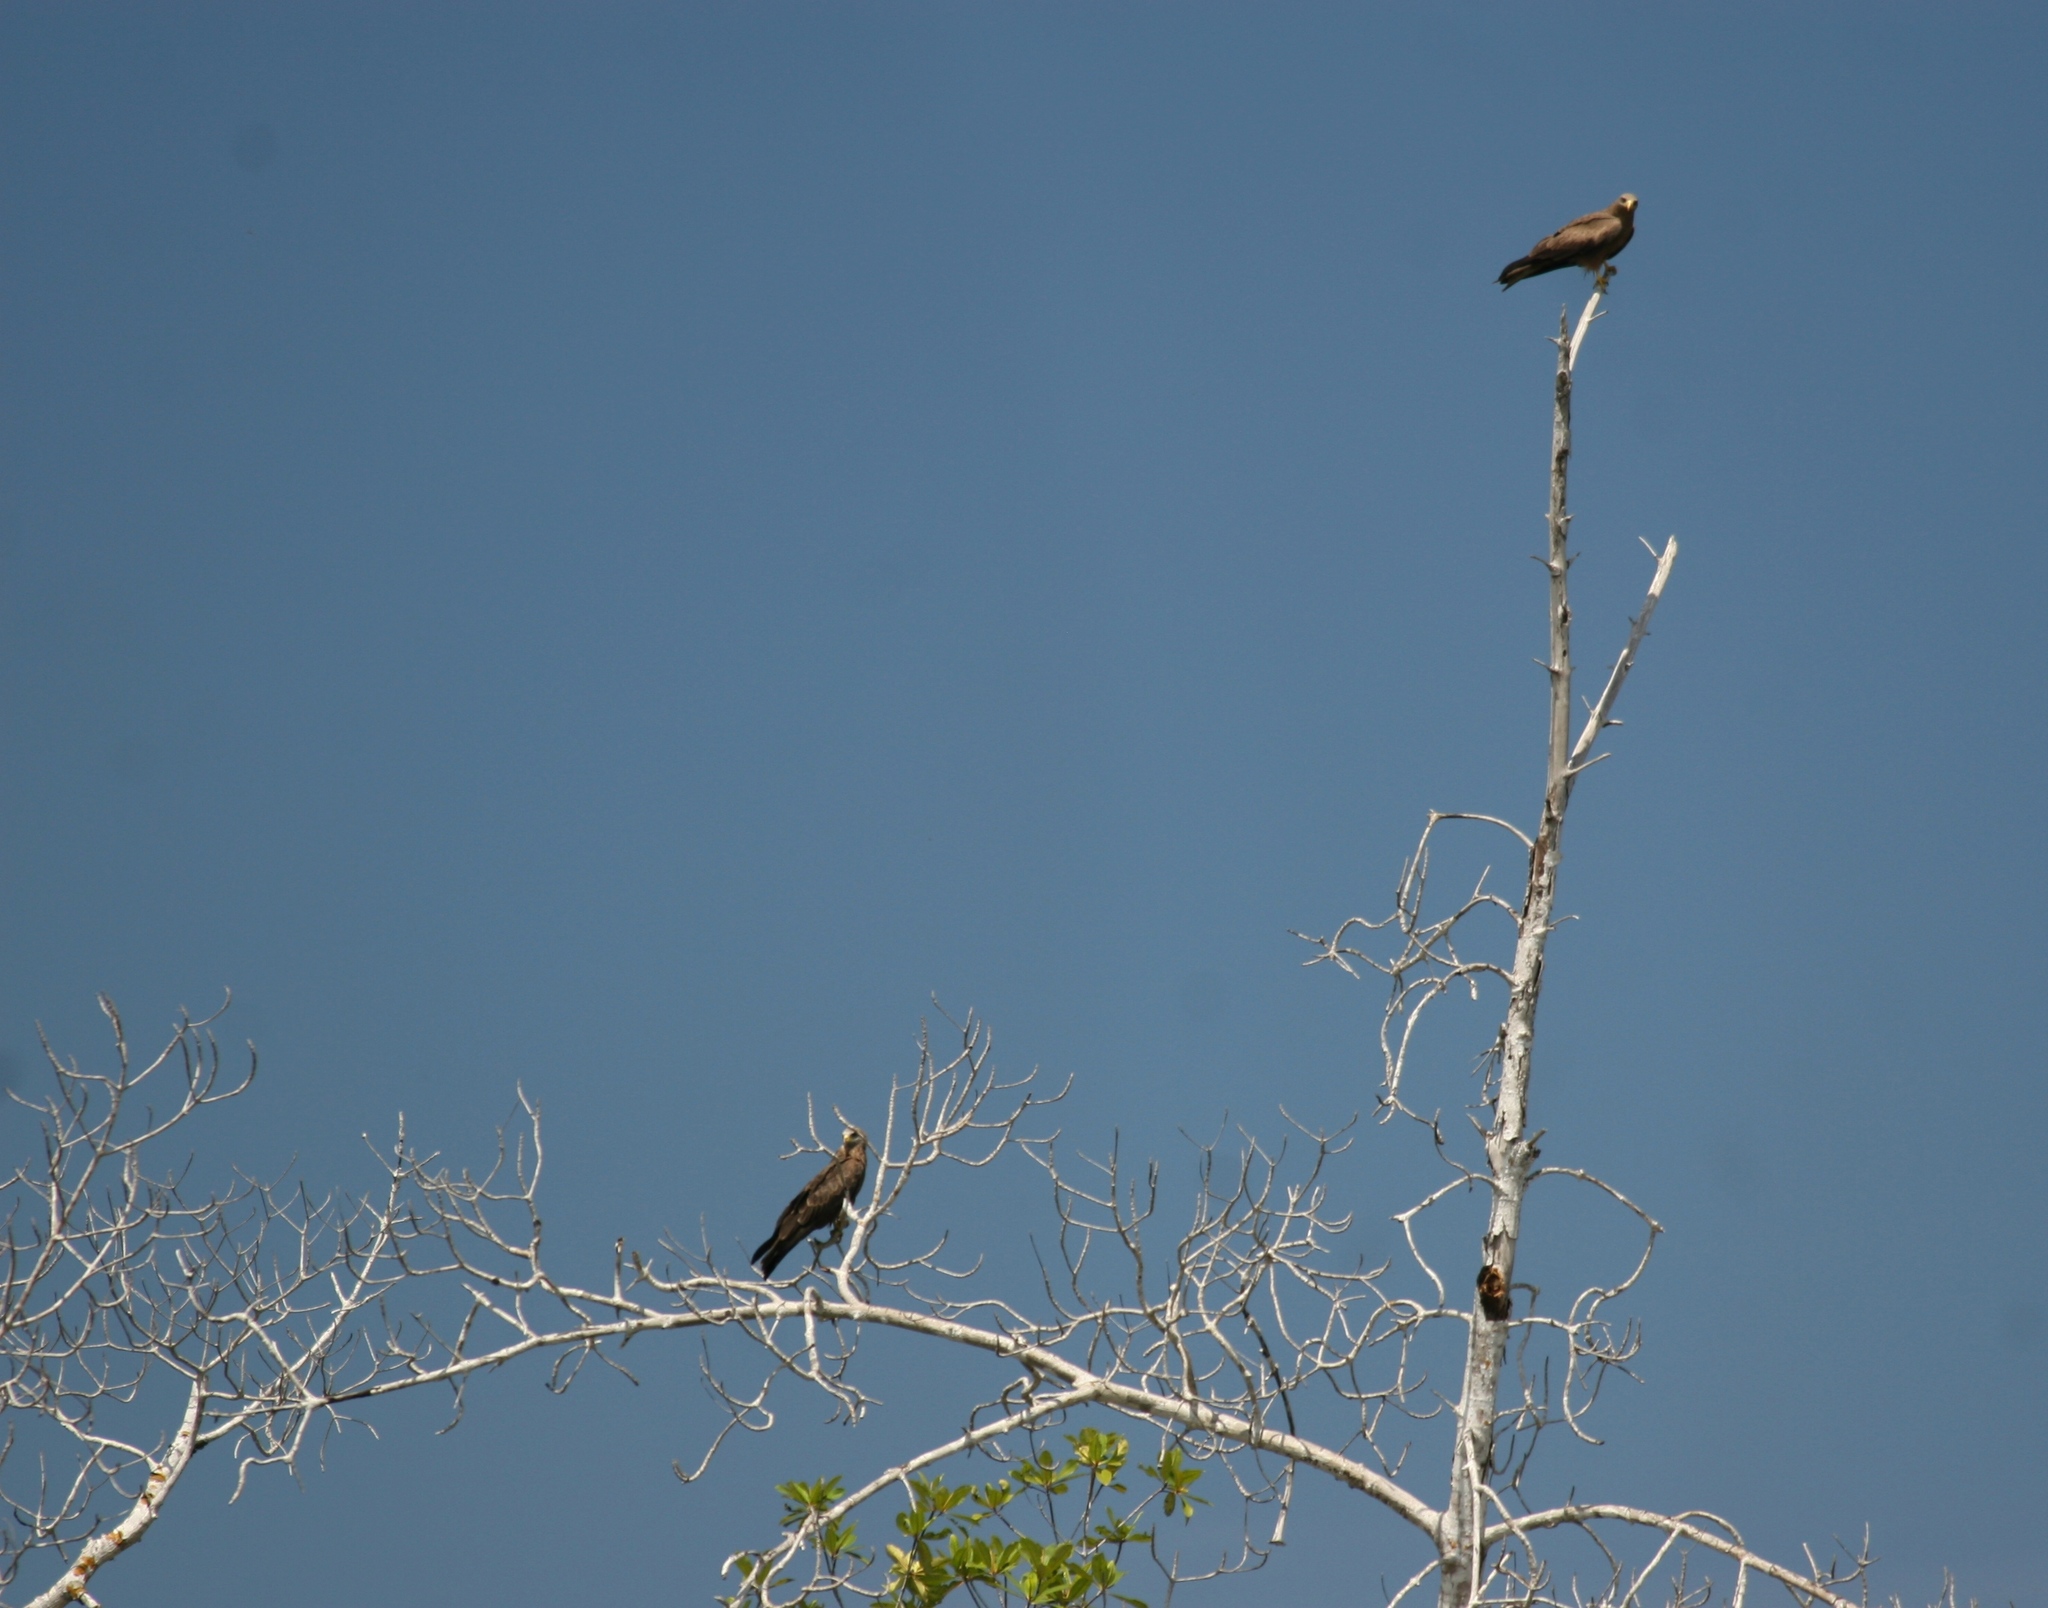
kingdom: Animalia
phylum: Chordata
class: Aves
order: Accipitriformes
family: Accipitridae
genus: Milvus
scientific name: Milvus migrans
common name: Black kite
